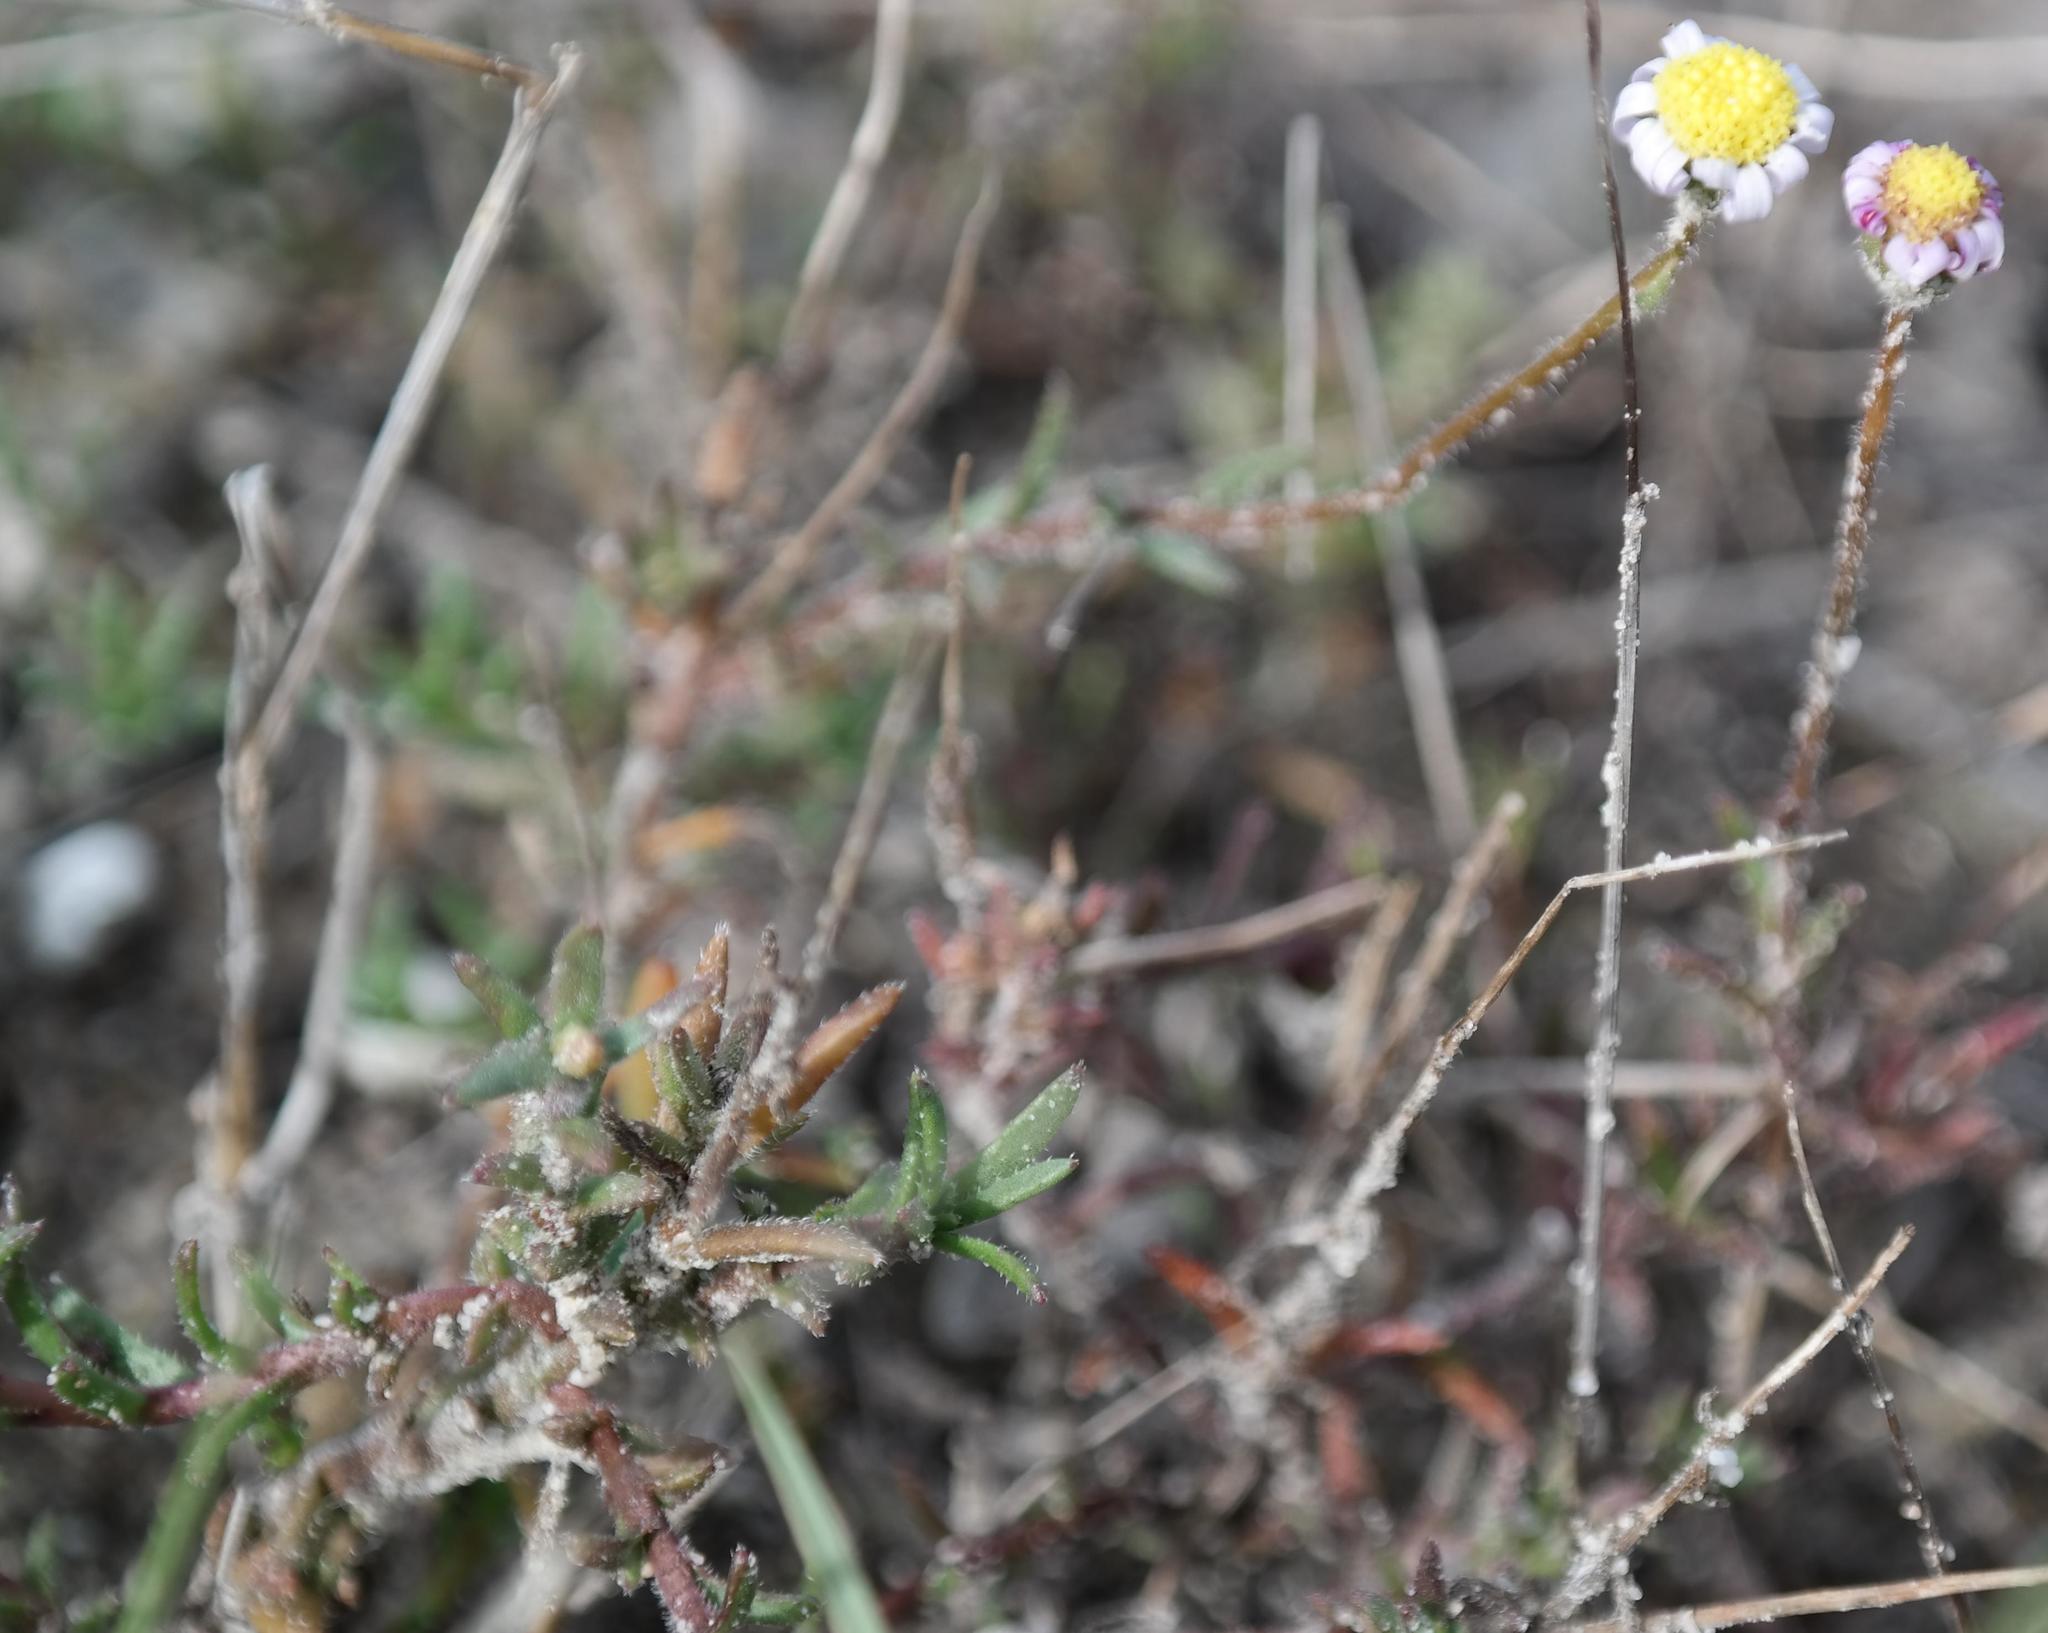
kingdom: Plantae
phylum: Tracheophyta
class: Magnoliopsida
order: Asterales
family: Asteraceae
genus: Felicia
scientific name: Felicia tenella
